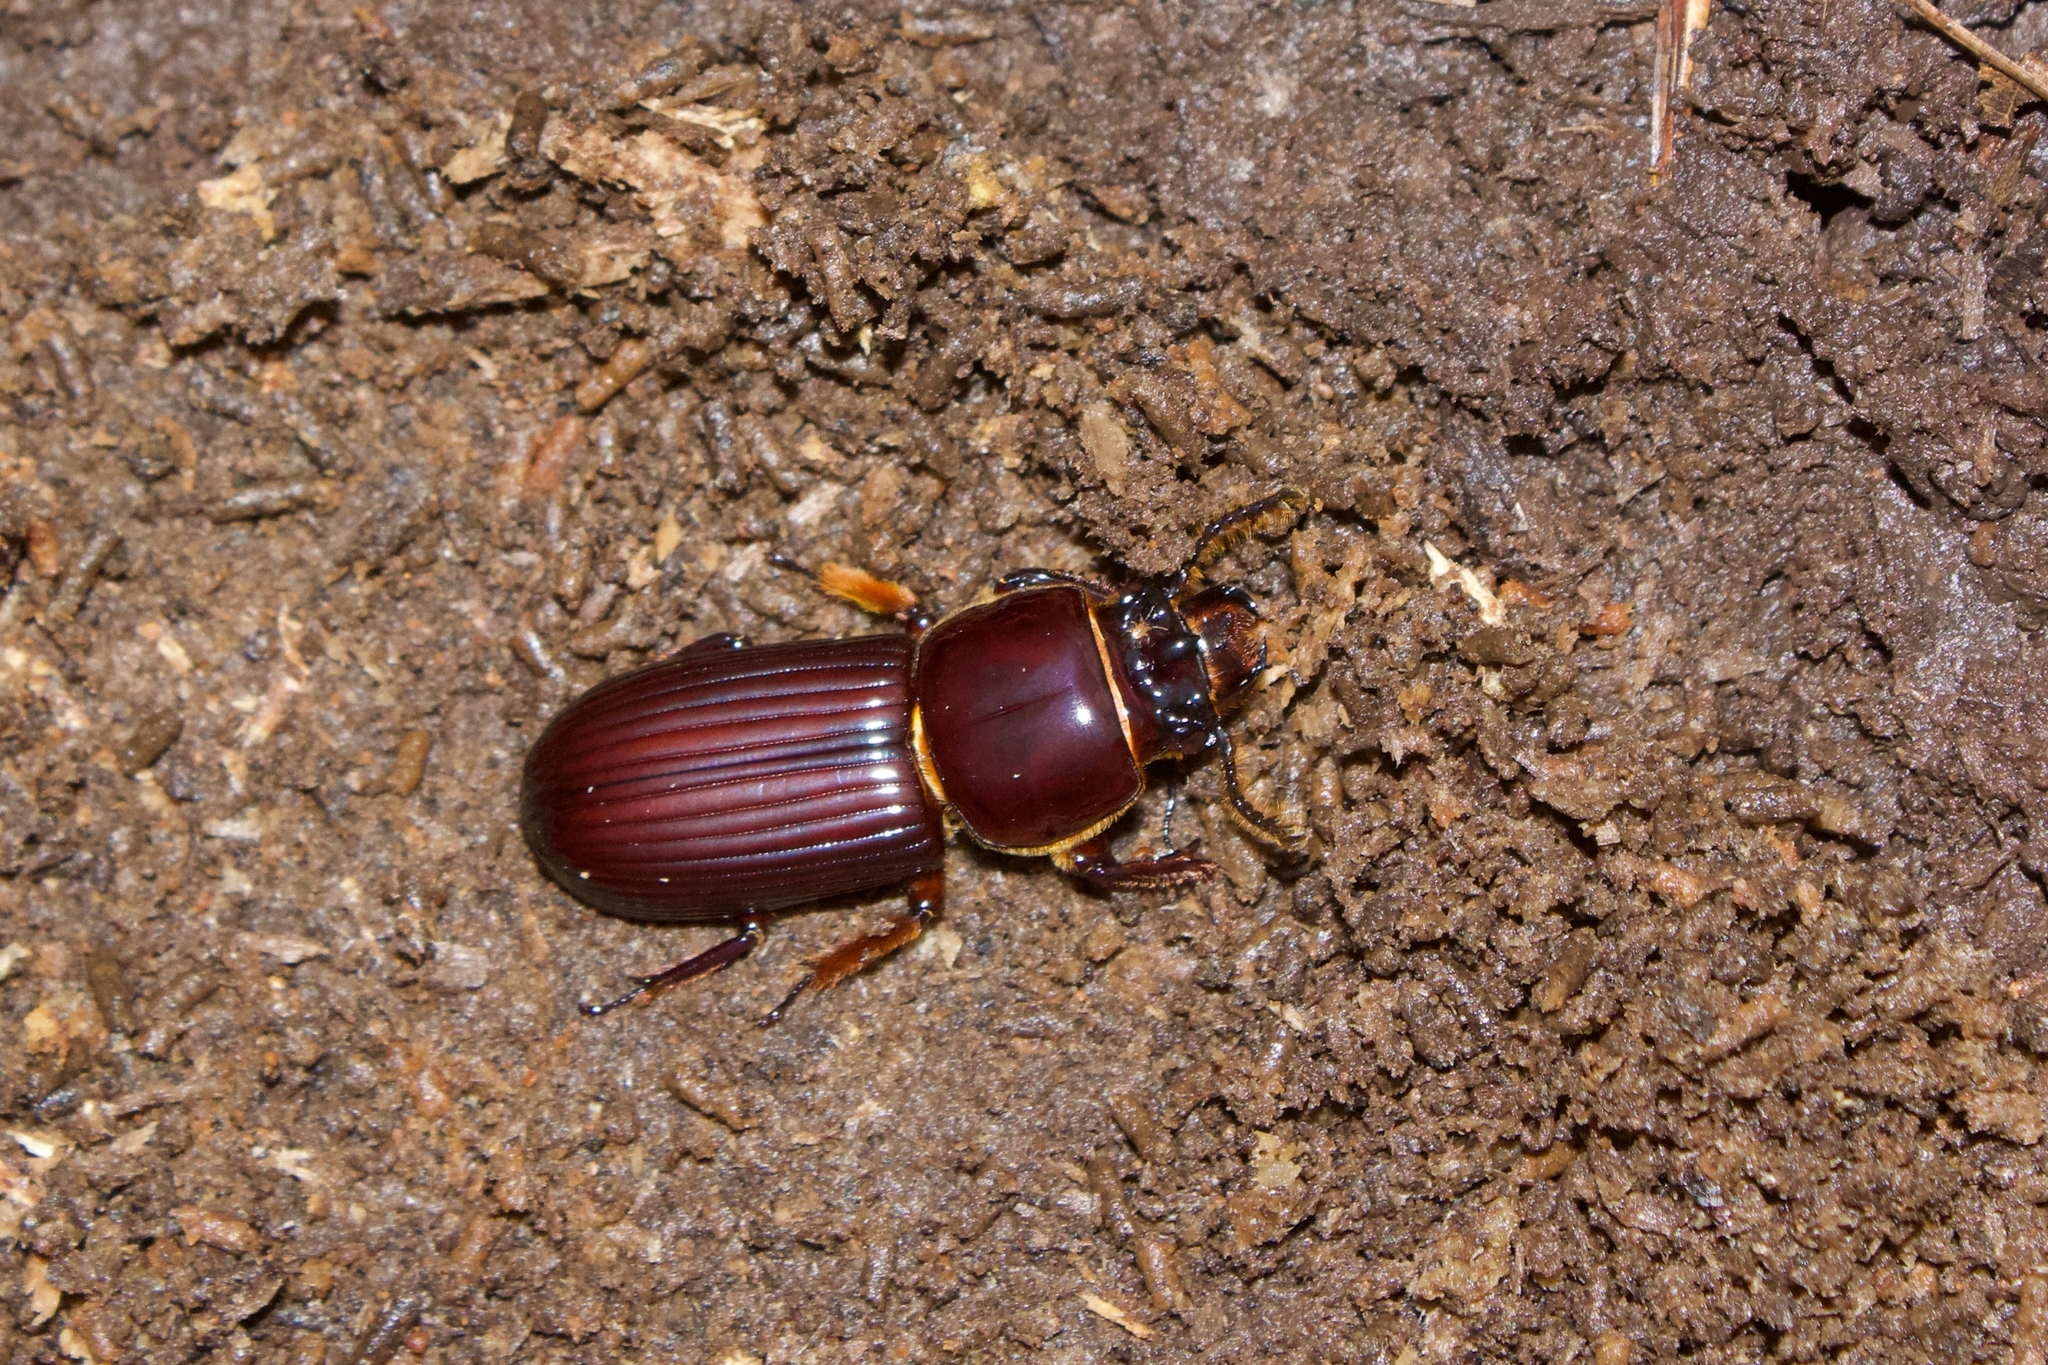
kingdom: Animalia
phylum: Arthropoda
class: Insecta
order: Coleoptera
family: Passalidae
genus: Odontotaenius
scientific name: Odontotaenius disjunctus
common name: Patent leather beetle
